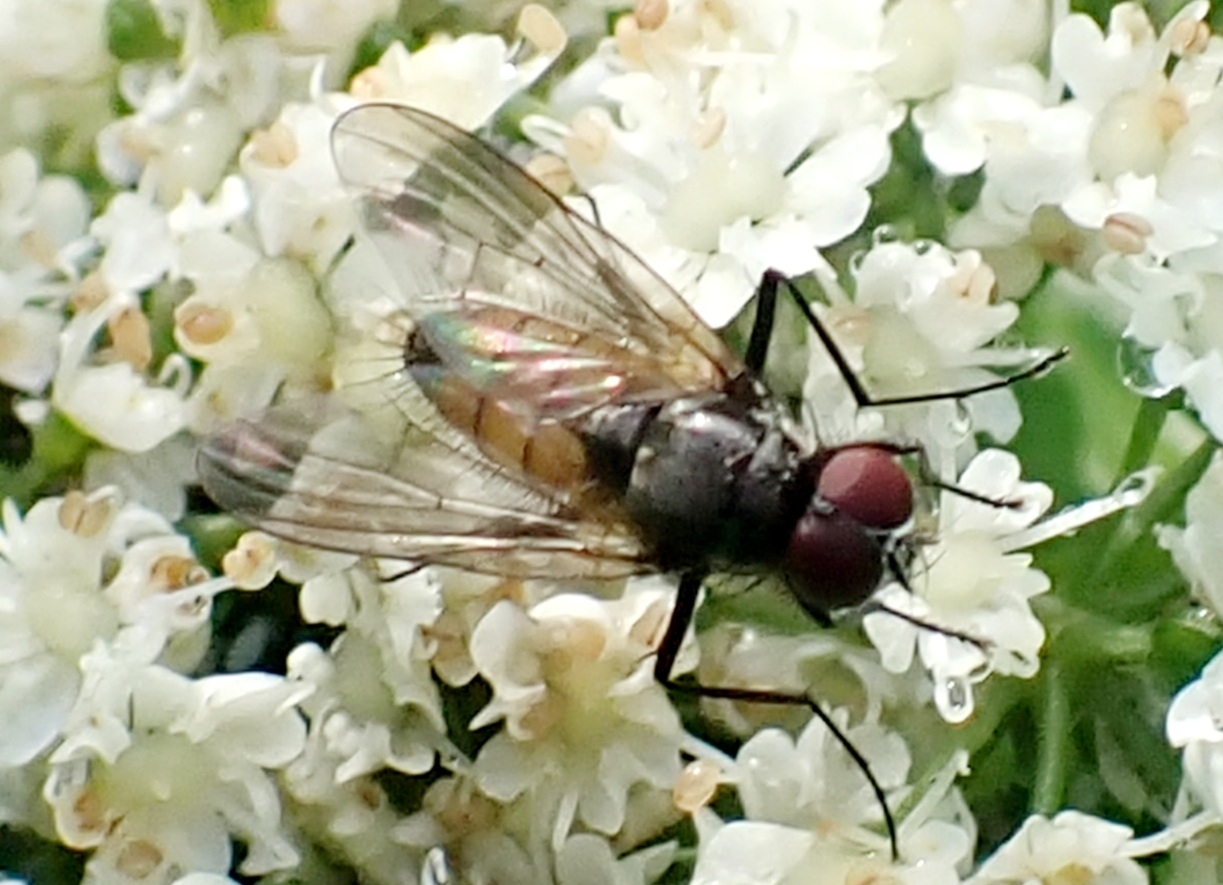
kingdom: Animalia
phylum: Arthropoda
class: Insecta
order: Diptera
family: Muscidae
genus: Thricops
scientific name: Thricops semicinereus
